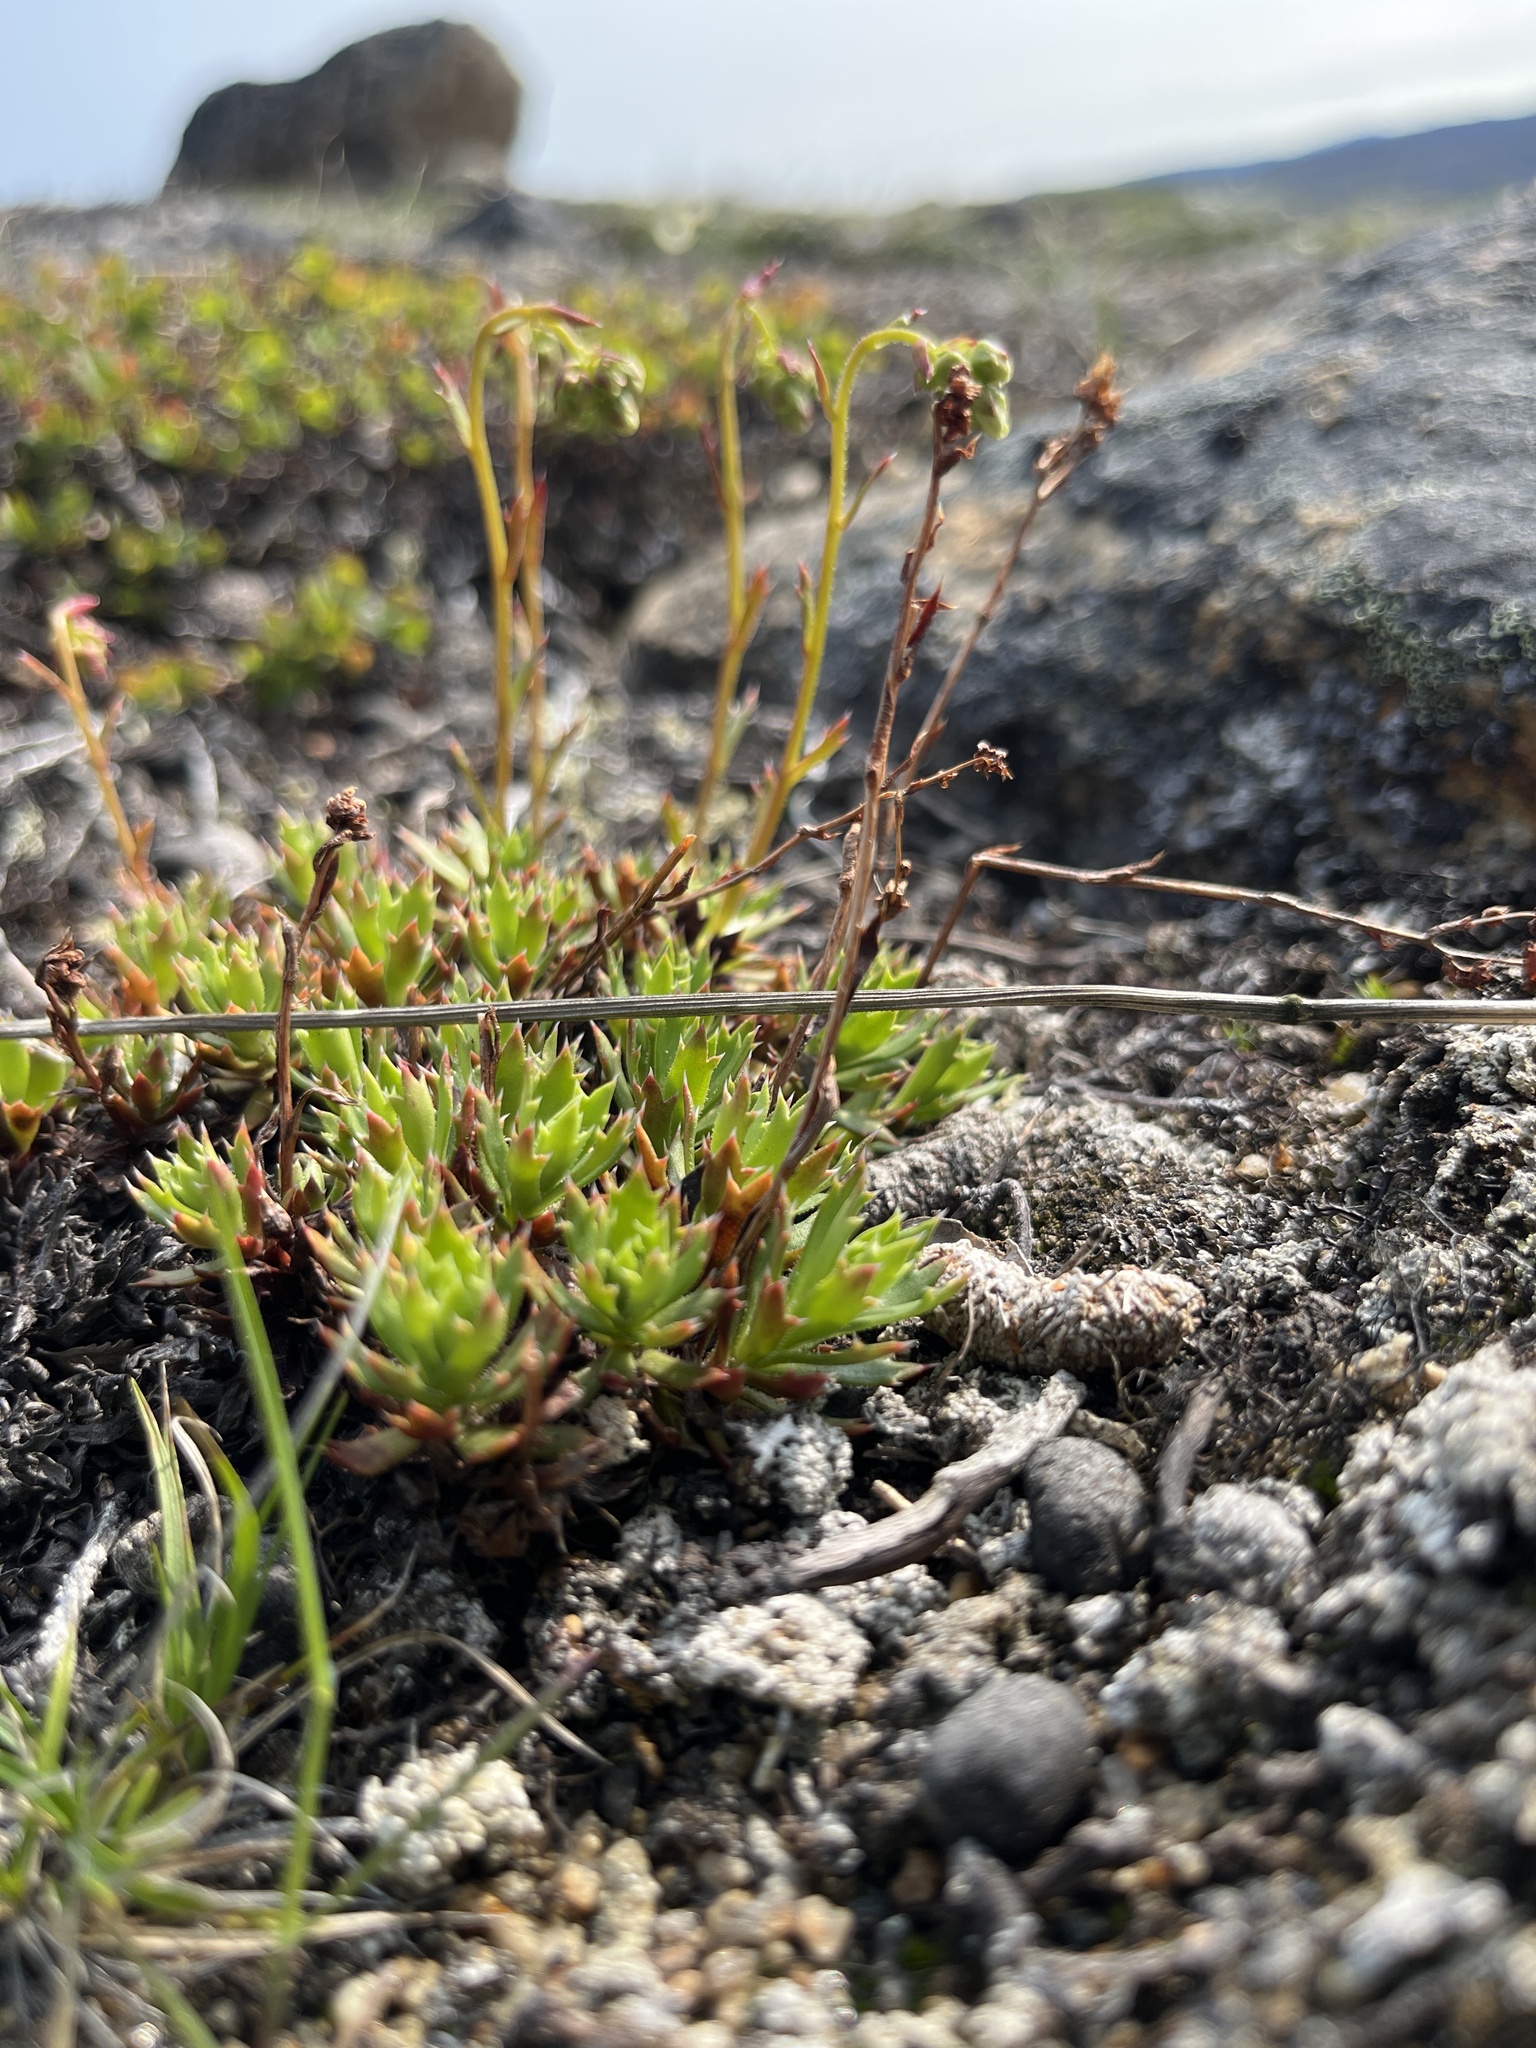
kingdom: Plantae
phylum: Tracheophyta
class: Magnoliopsida
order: Saxifragales
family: Saxifragaceae
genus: Saxifraga
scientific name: Saxifraga tricuspidata
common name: Prickly saxifrage
